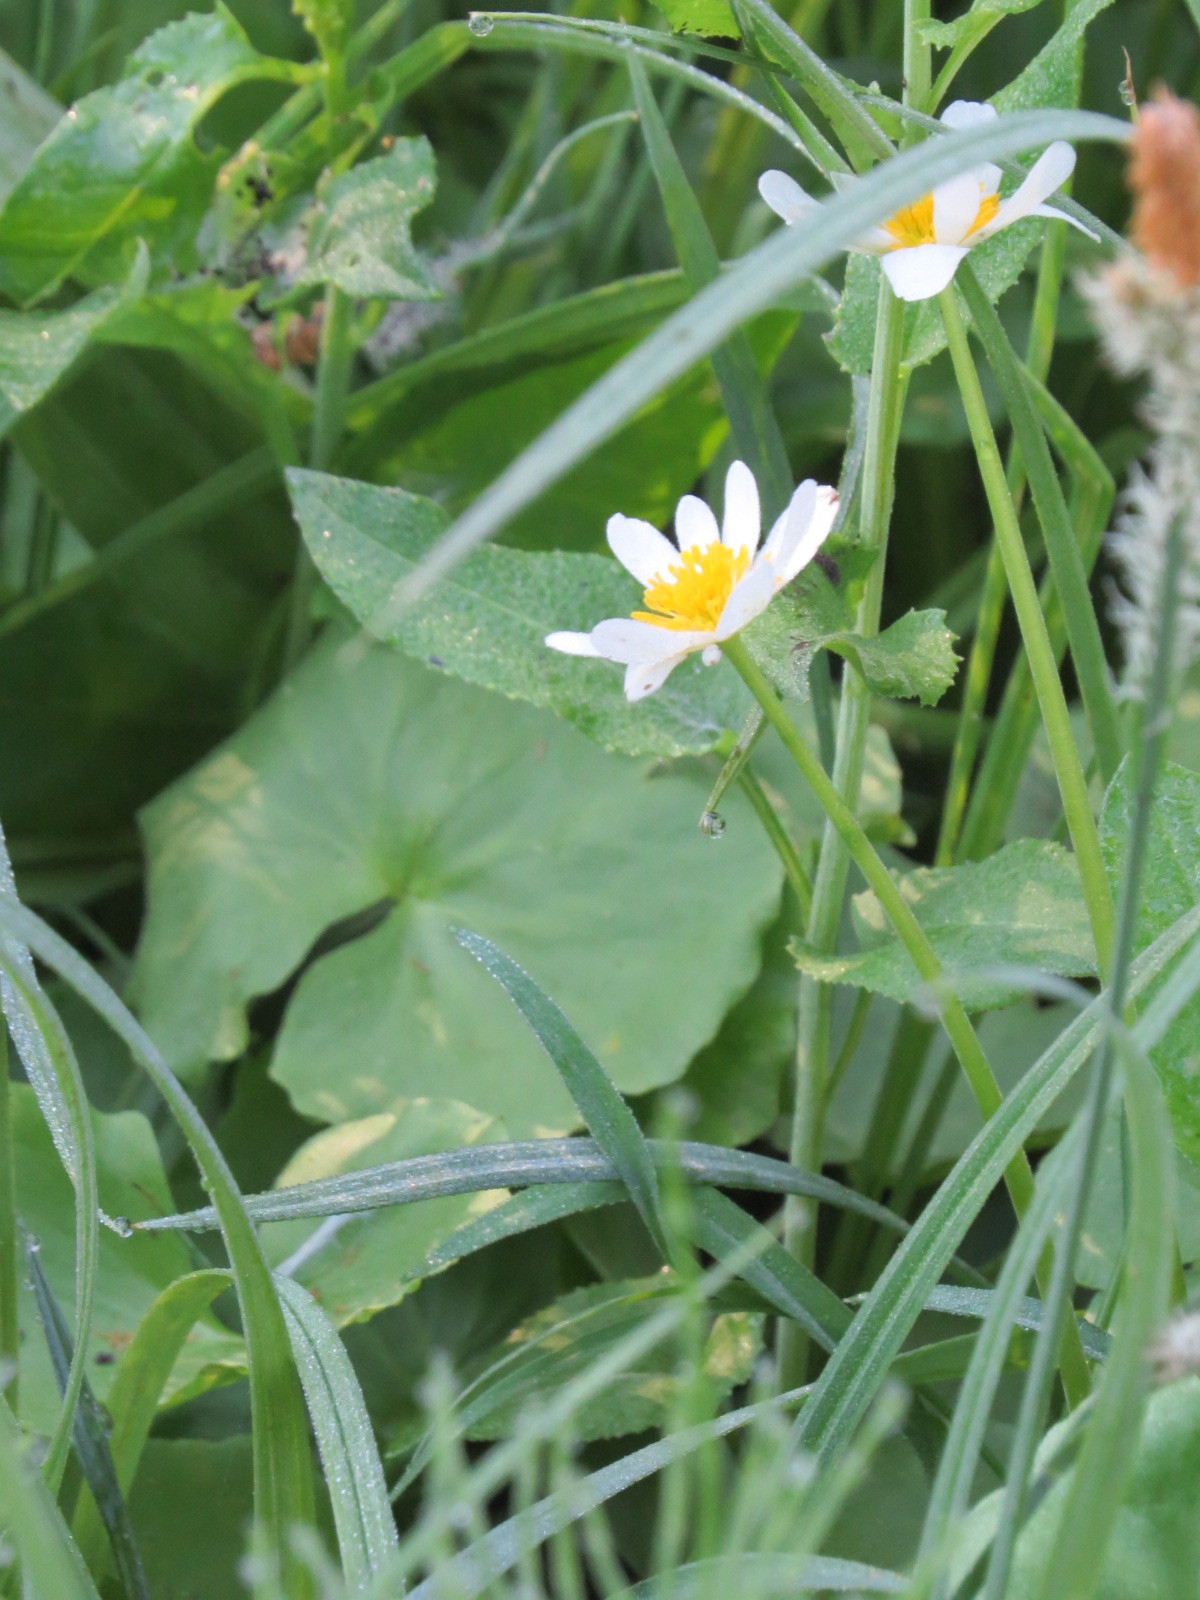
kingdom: Plantae
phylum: Tracheophyta
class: Magnoliopsida
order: Ranunculales
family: Ranunculaceae
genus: Caltha
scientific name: Caltha leptosepala
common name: Elkslip
